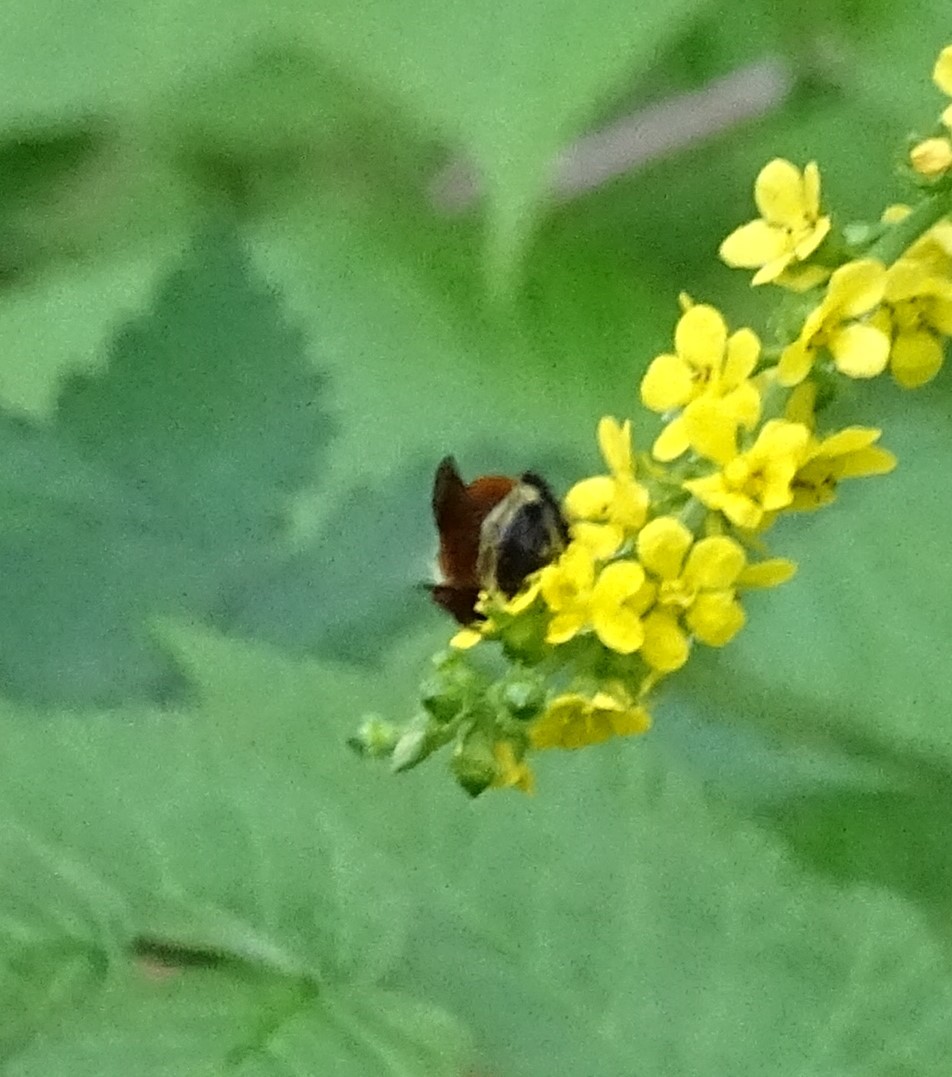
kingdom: Animalia
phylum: Arthropoda
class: Insecta
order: Hymenoptera
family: Apidae
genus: Bombus
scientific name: Bombus ternarius
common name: Tri-colored bumble bee
